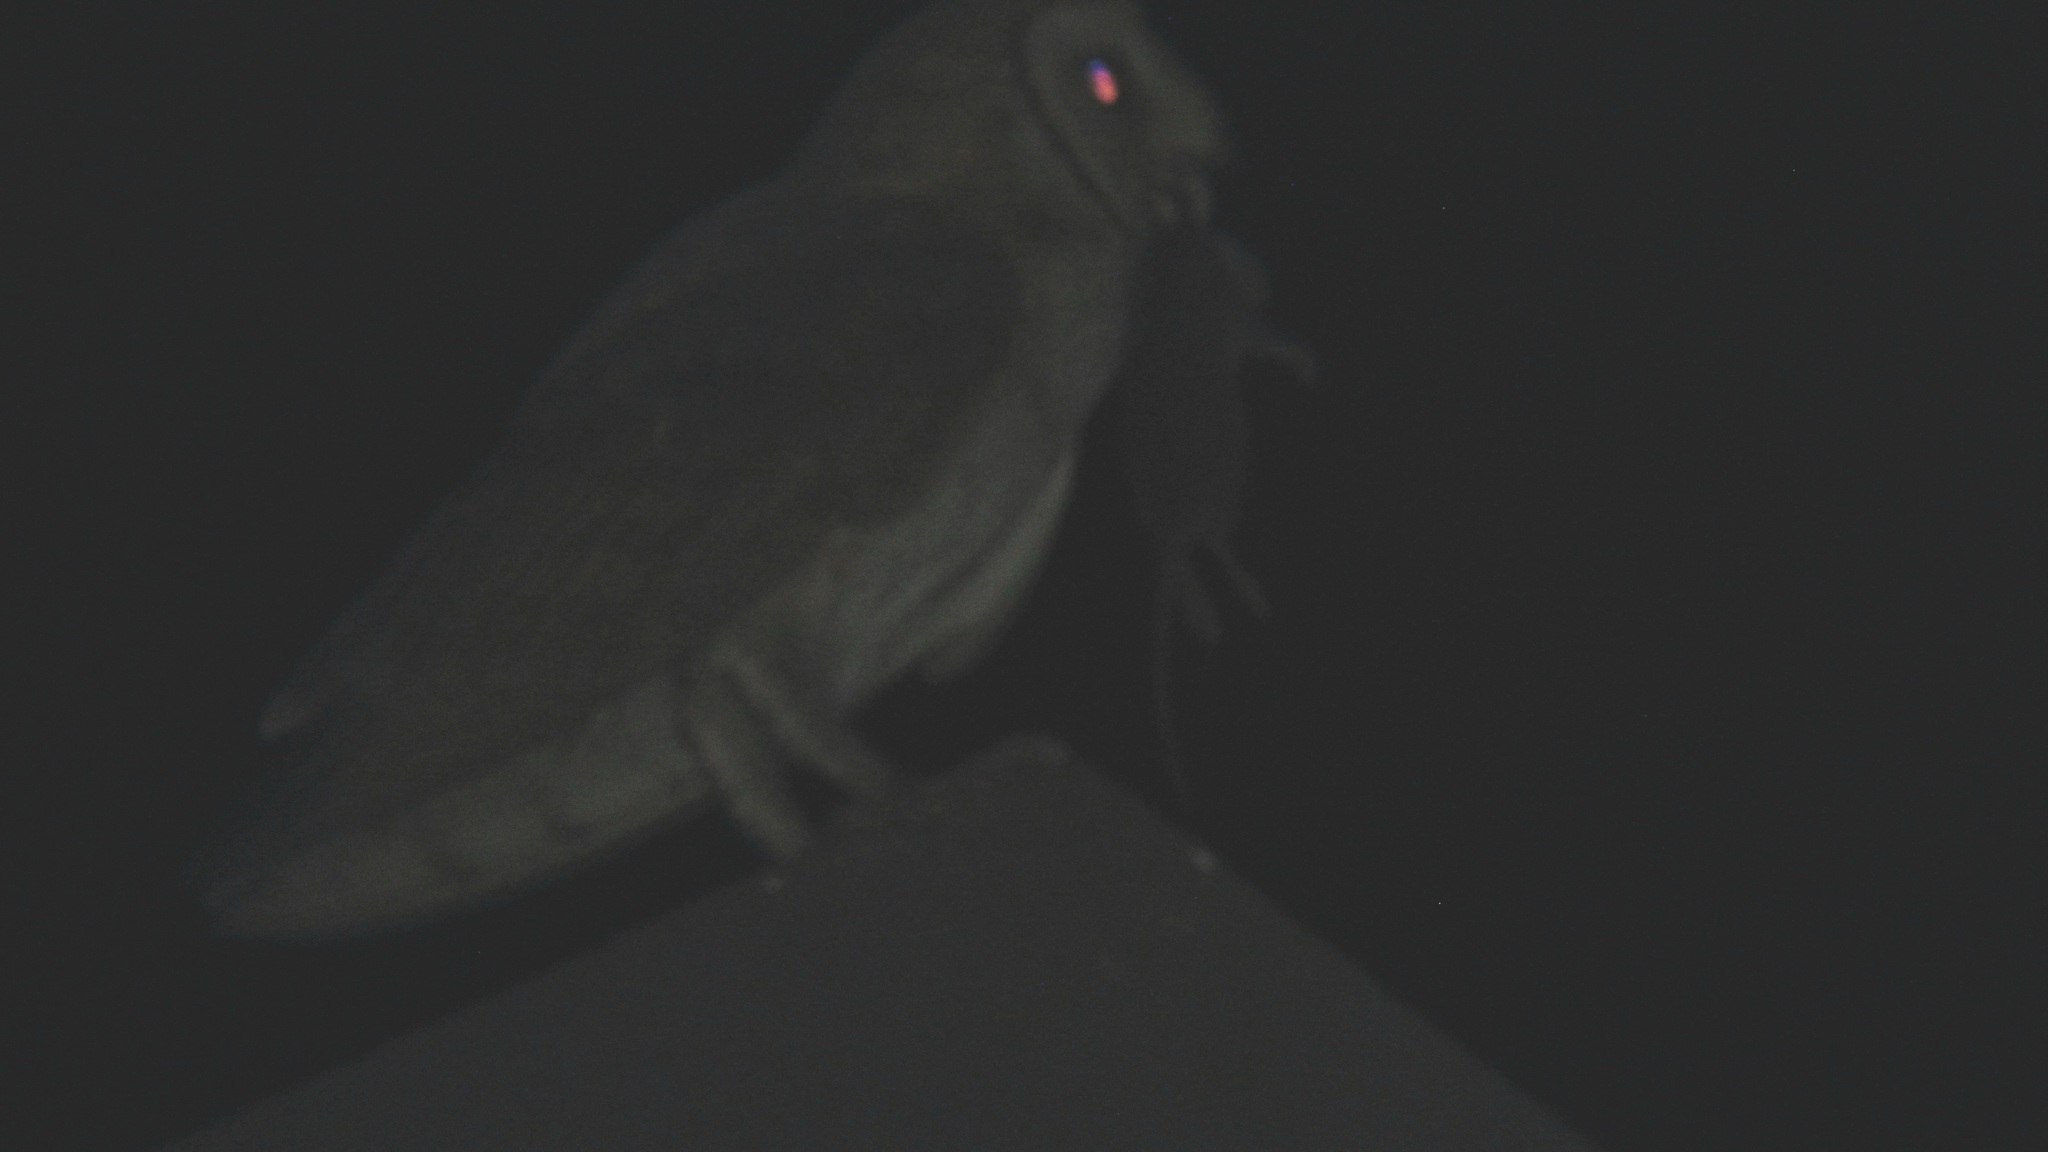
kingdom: Animalia
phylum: Chordata
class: Aves
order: Strigiformes
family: Tytonidae
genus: Tyto
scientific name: Tyto alba
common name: Barn owl
